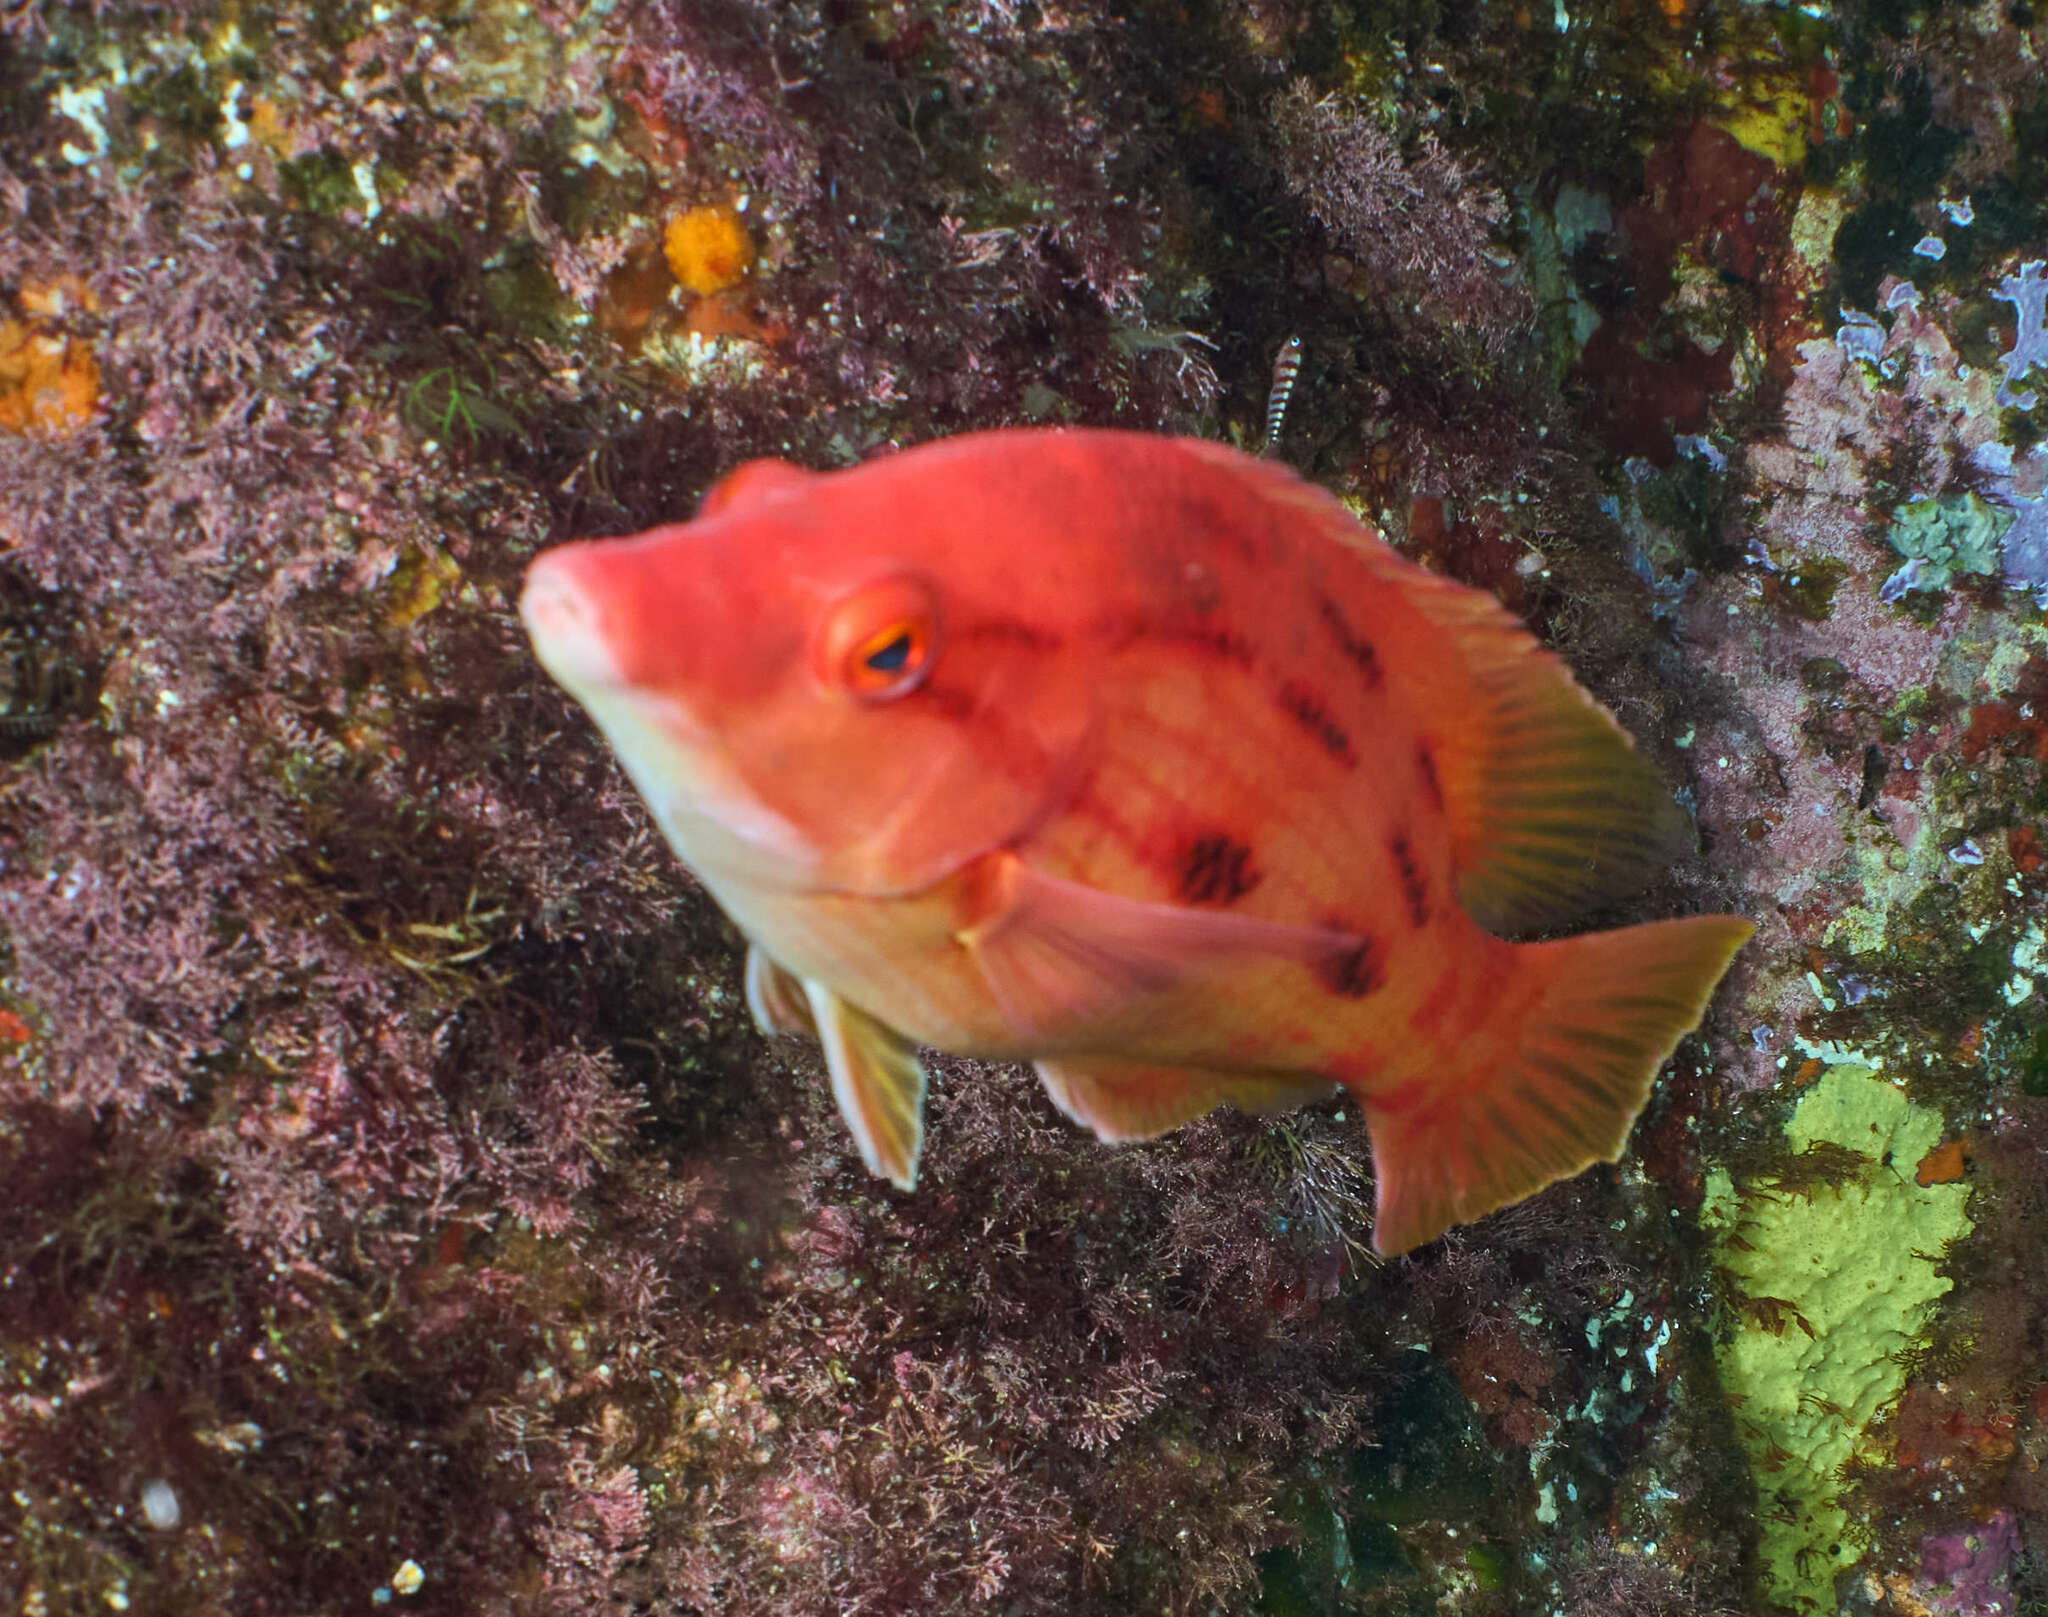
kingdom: Animalia
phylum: Chordata
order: Perciformes
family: Labridae
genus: Bodianus
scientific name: Bodianus unimaculatus
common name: Pigfish
